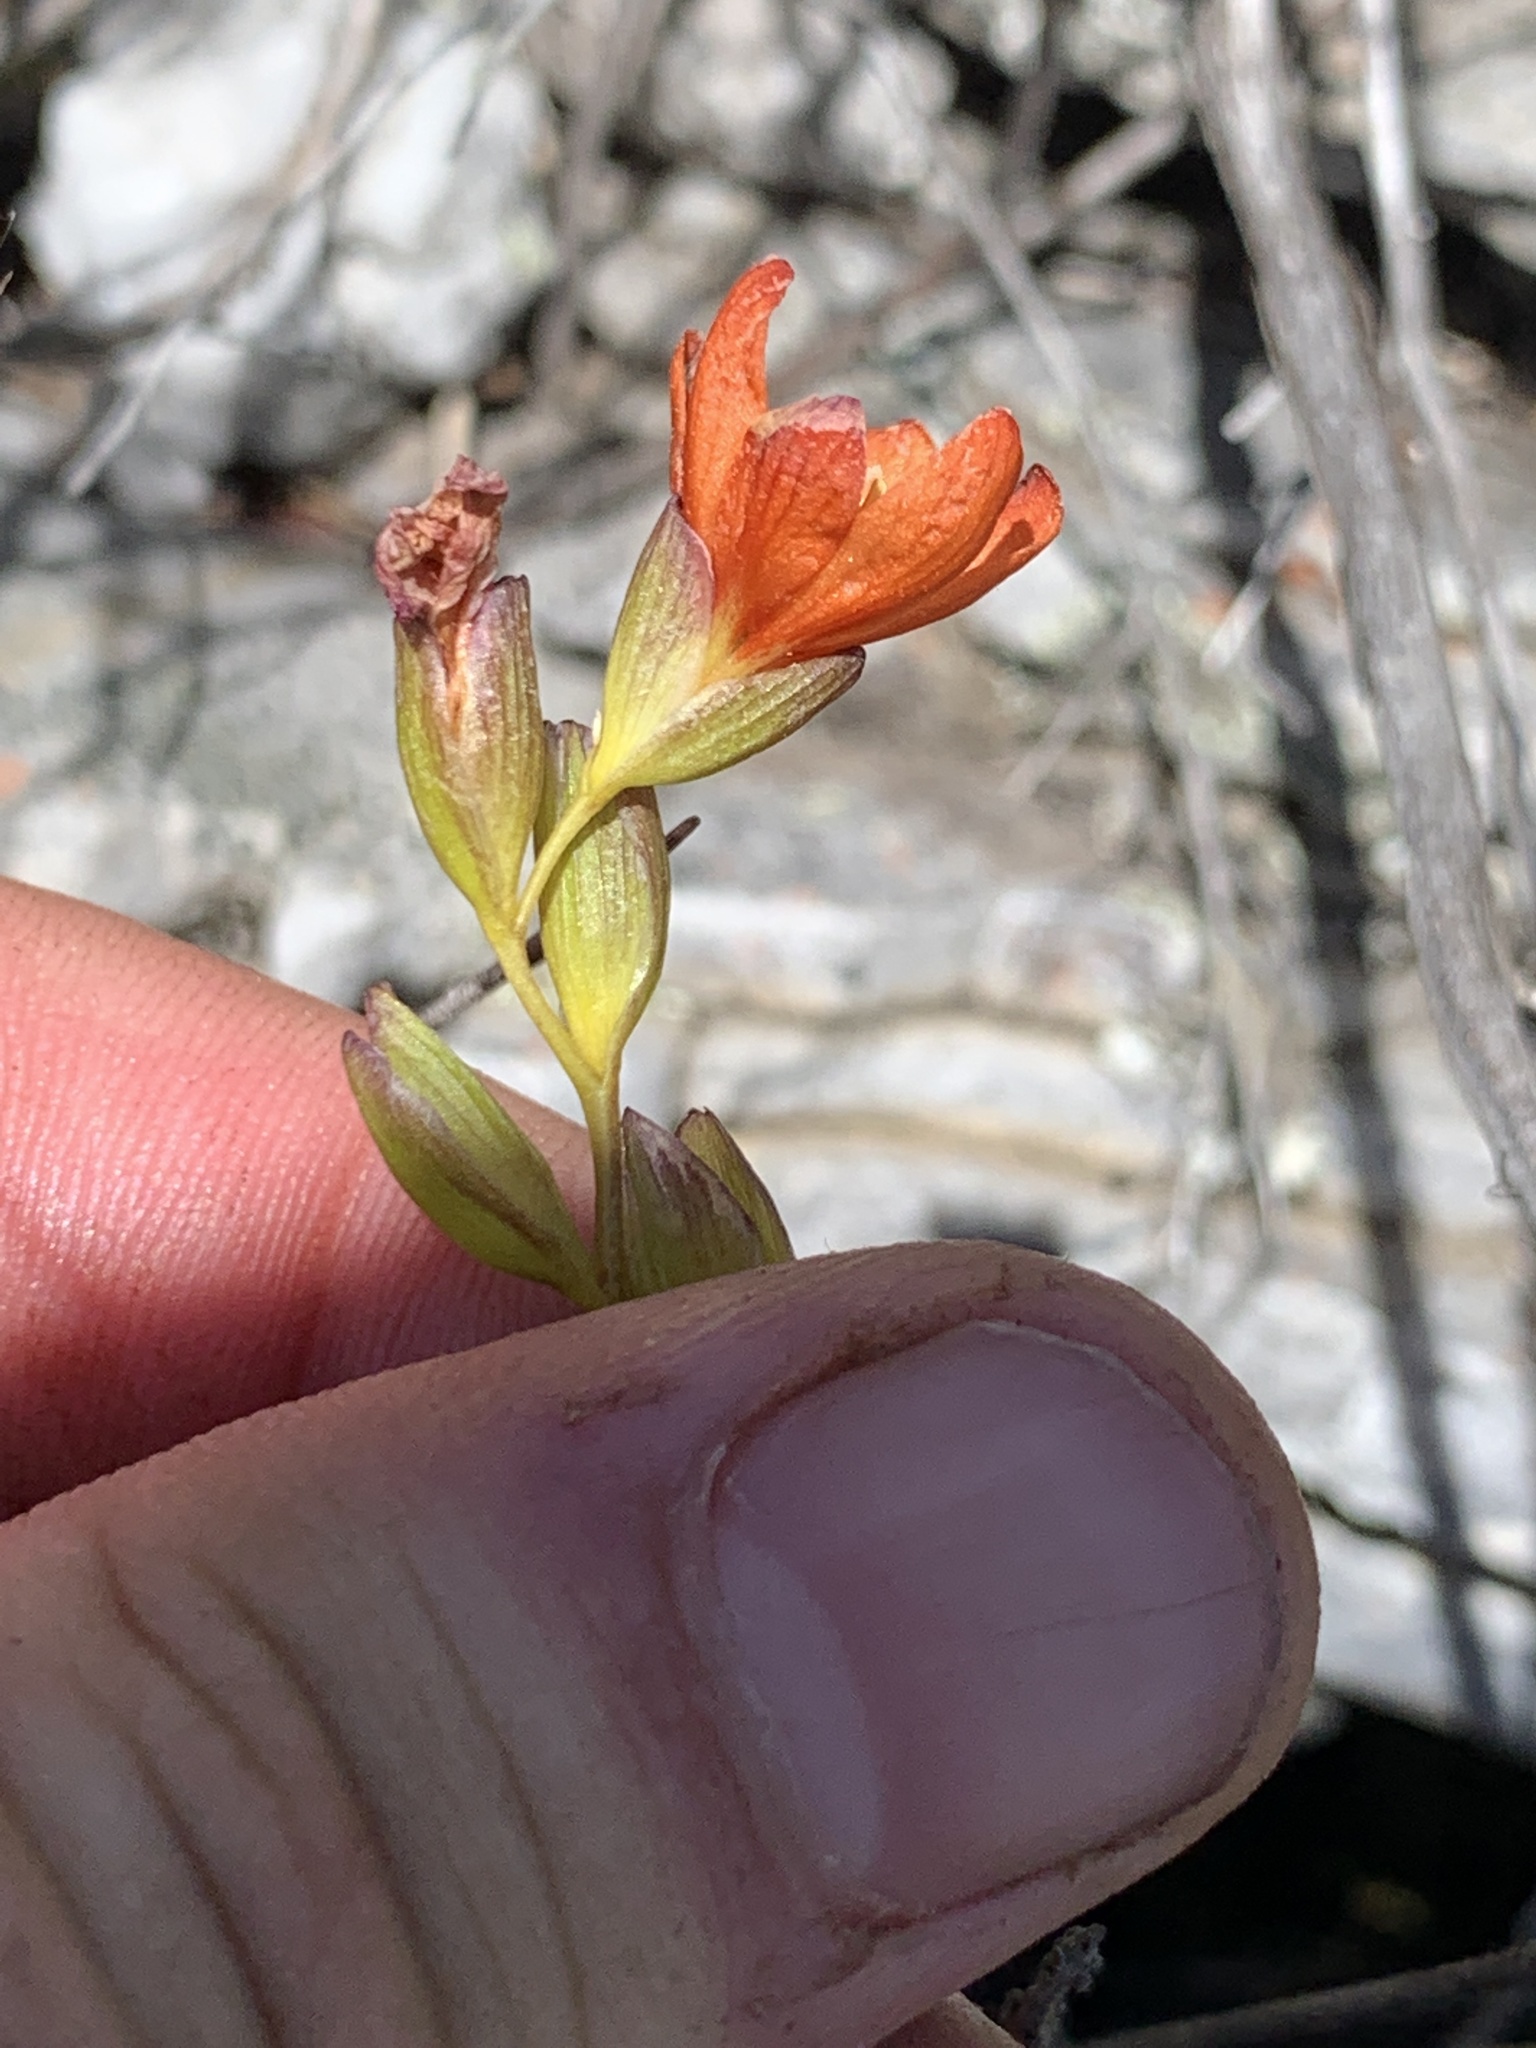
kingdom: Plantae
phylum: Tracheophyta
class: Liliopsida
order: Asparagales
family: Iridaceae
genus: Gladiolus
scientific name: Gladiolus brevitubus
